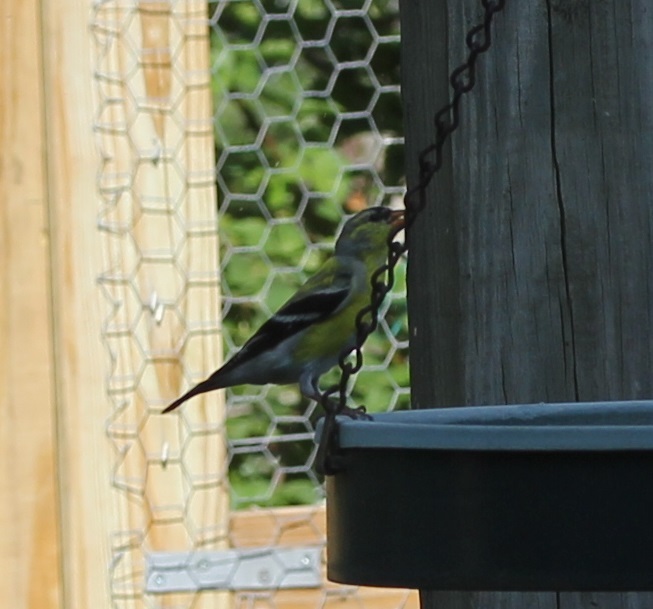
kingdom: Animalia
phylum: Chordata
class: Aves
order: Passeriformes
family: Fringillidae
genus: Spinus
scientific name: Spinus tristis
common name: American goldfinch
